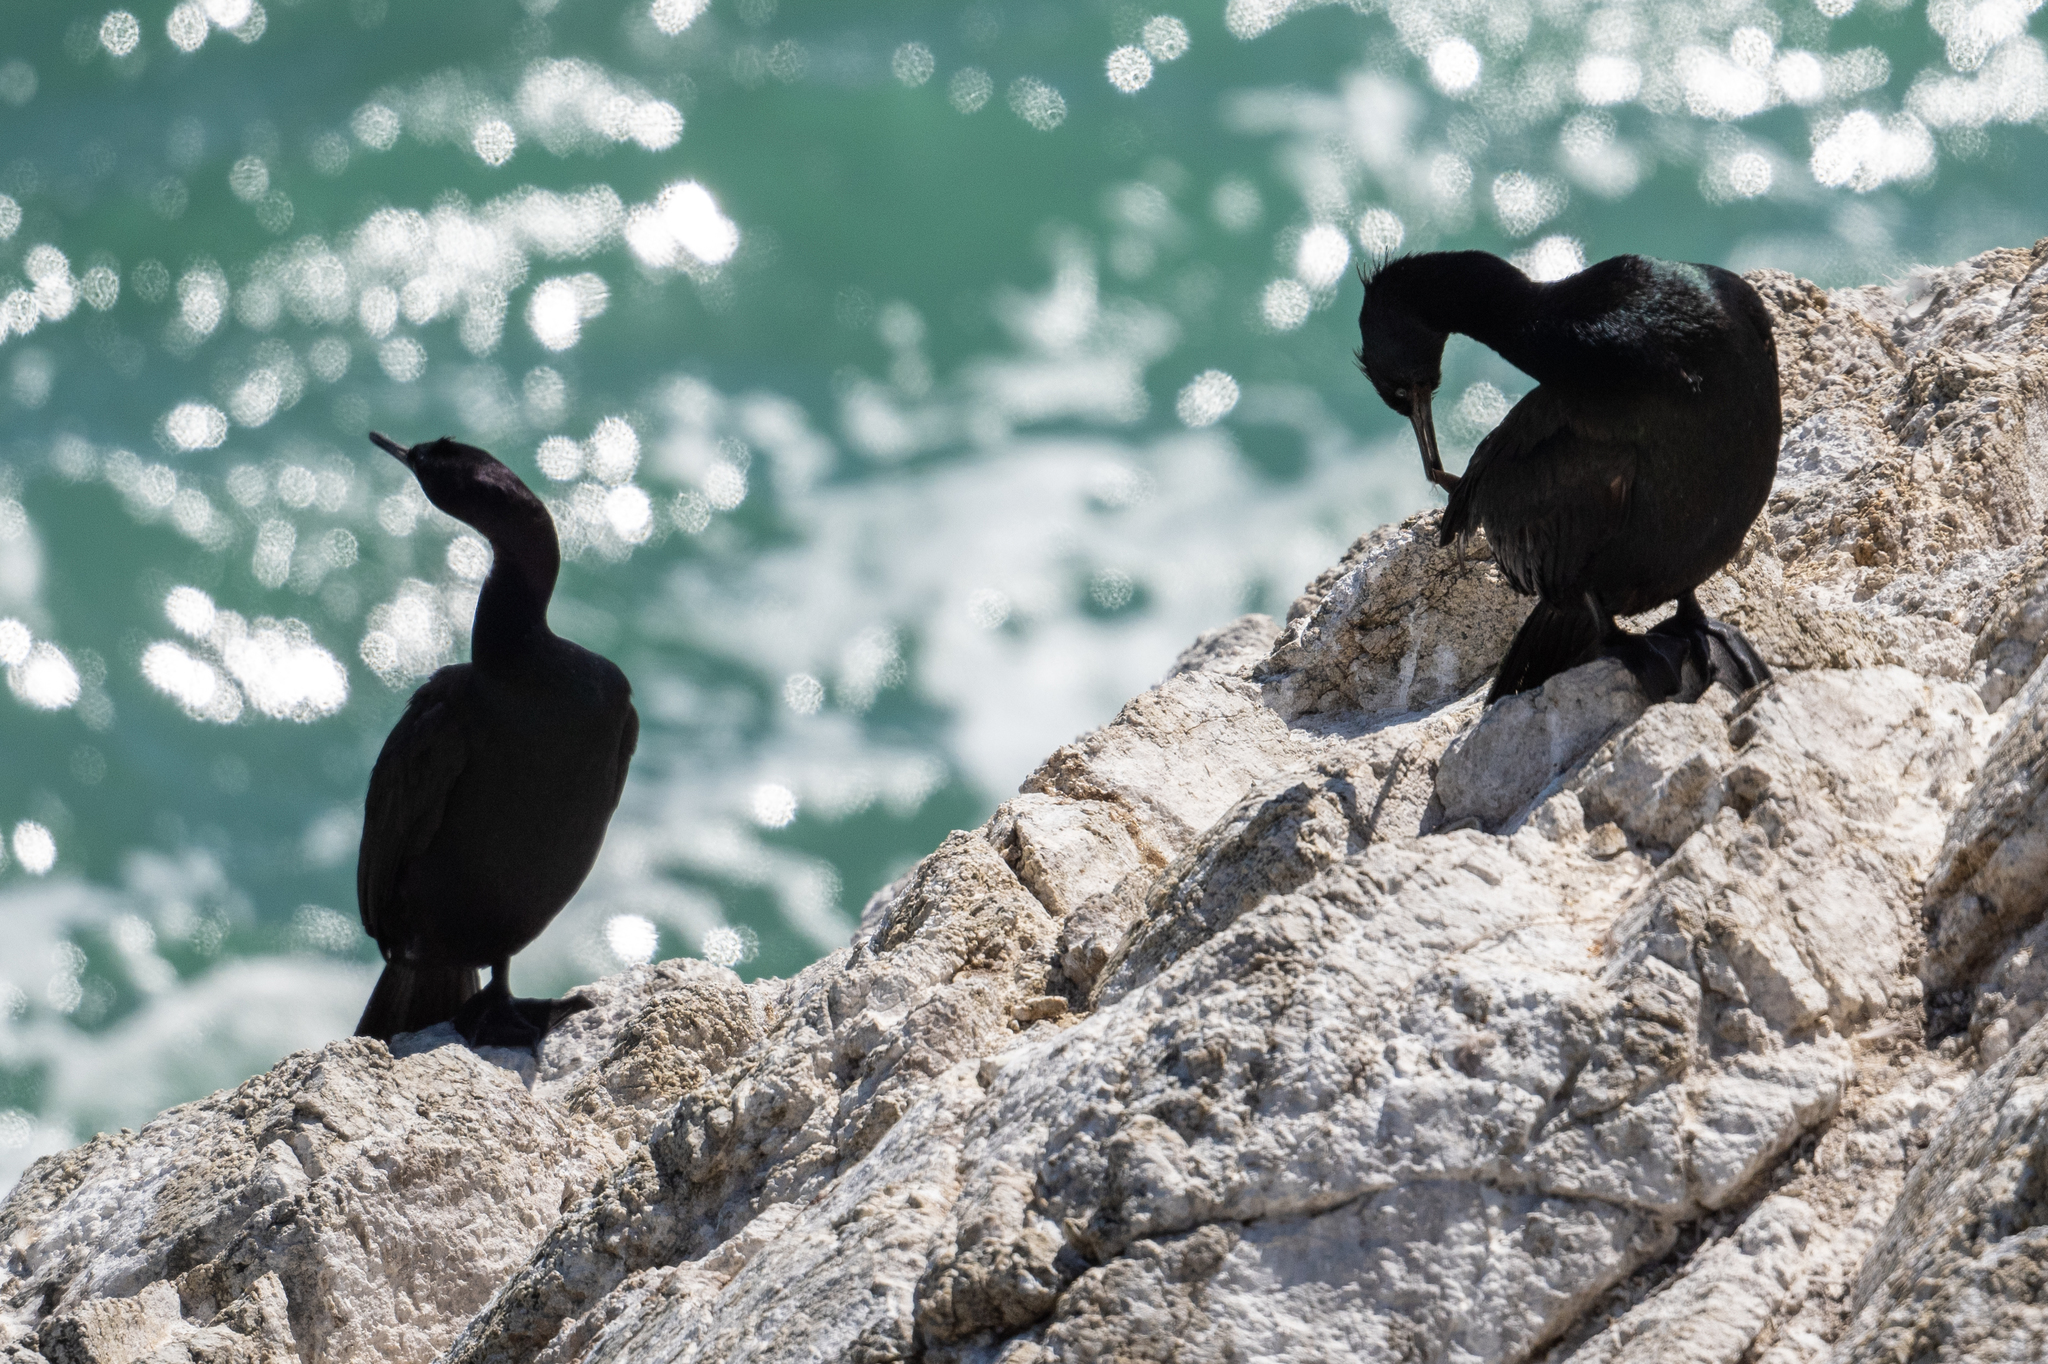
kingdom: Animalia
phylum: Chordata
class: Aves
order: Suliformes
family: Phalacrocoracidae
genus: Phalacrocorax
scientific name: Phalacrocorax pelagicus
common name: Pelagic cormorant
